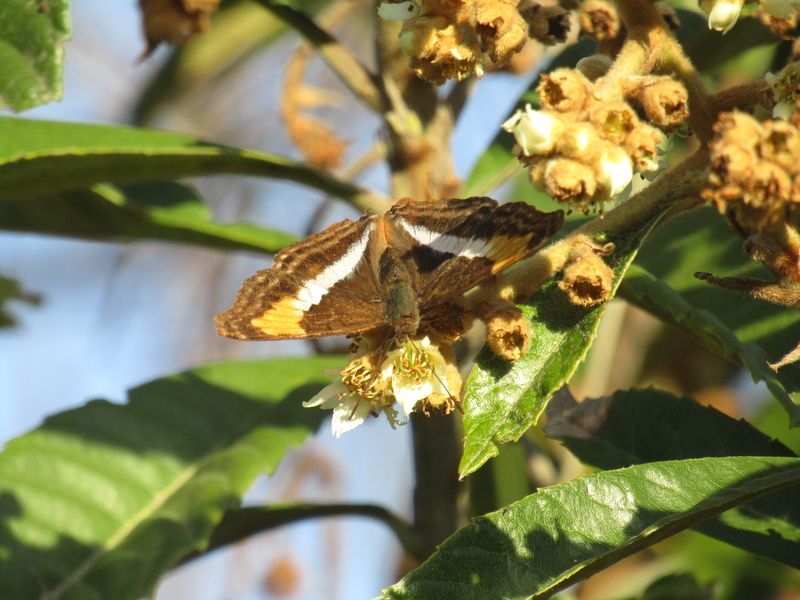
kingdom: Animalia
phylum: Arthropoda
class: Insecta
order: Lepidoptera
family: Nymphalidae
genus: Doxocopa
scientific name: Doxocopa laurentia
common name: Turquoise emperor
